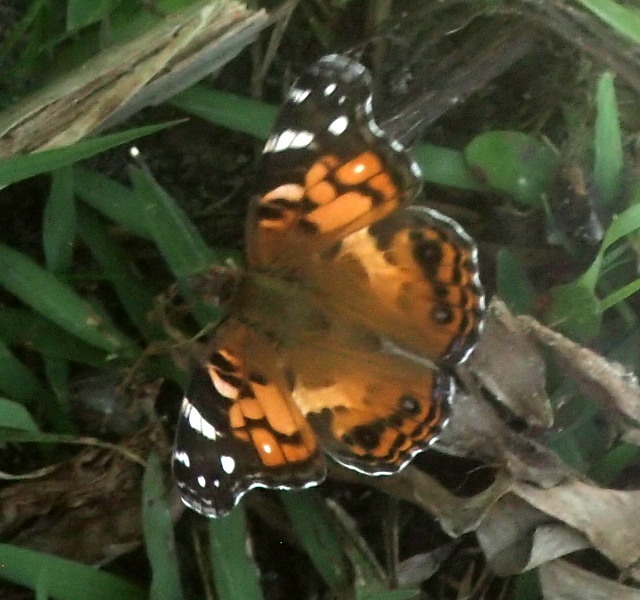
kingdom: Animalia
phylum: Arthropoda
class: Insecta
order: Lepidoptera
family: Nymphalidae
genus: Vanessa
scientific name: Vanessa virginiensis
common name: American lady
